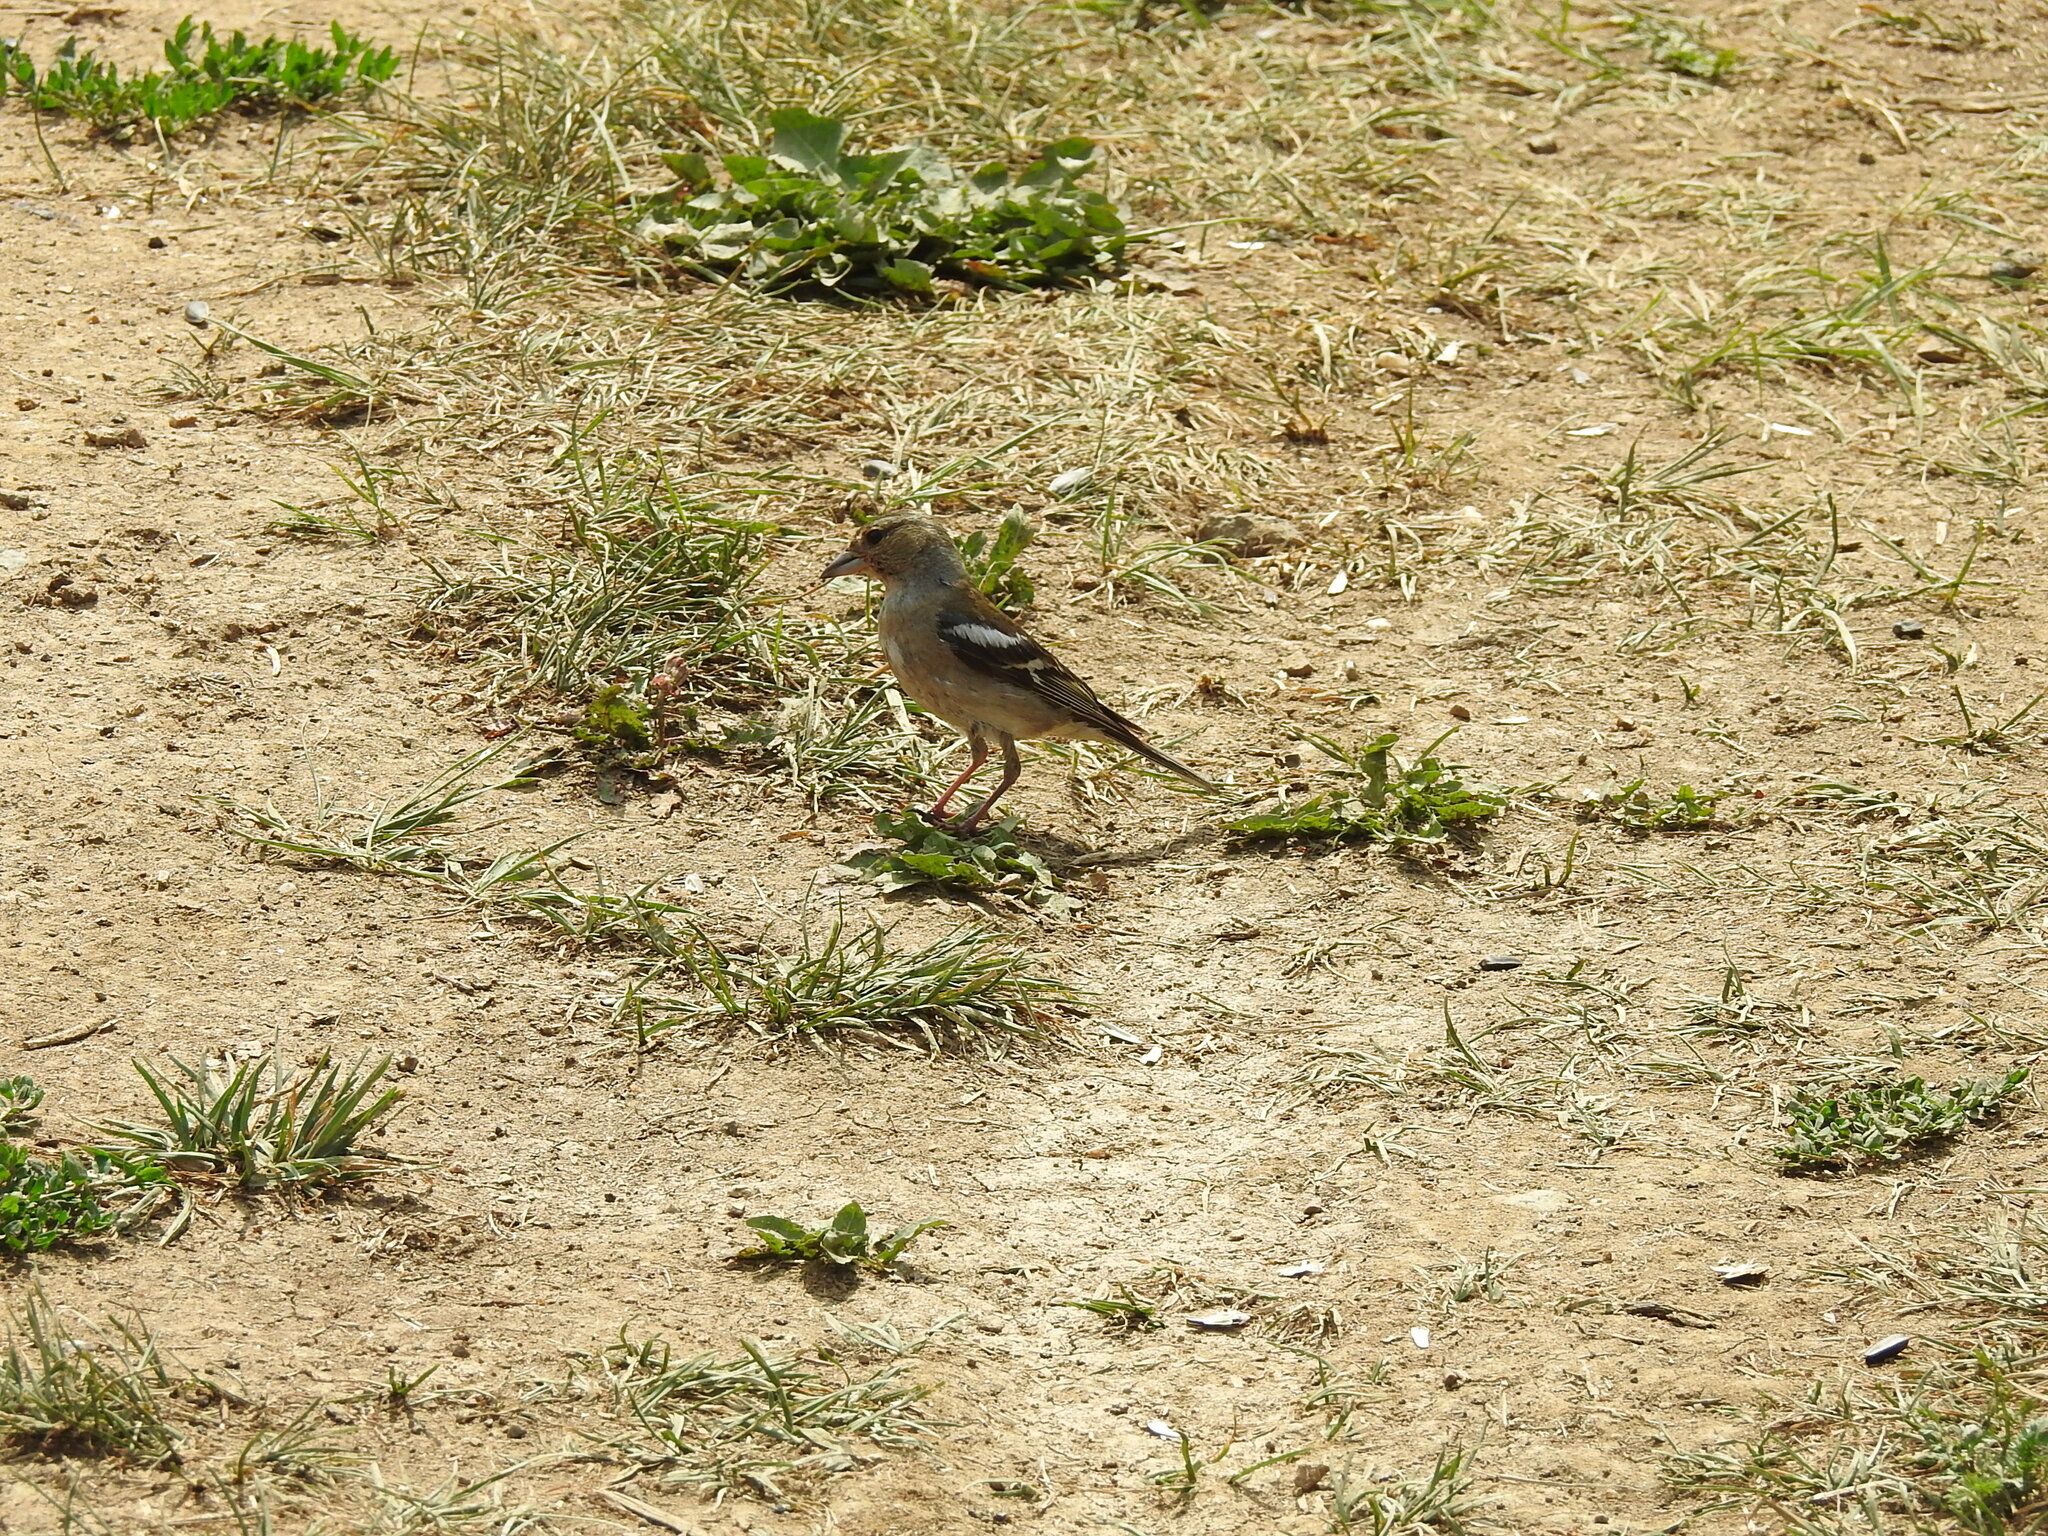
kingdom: Animalia
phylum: Chordata
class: Aves
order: Passeriformes
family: Fringillidae
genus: Fringilla
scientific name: Fringilla coelebs
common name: Common chaffinch
